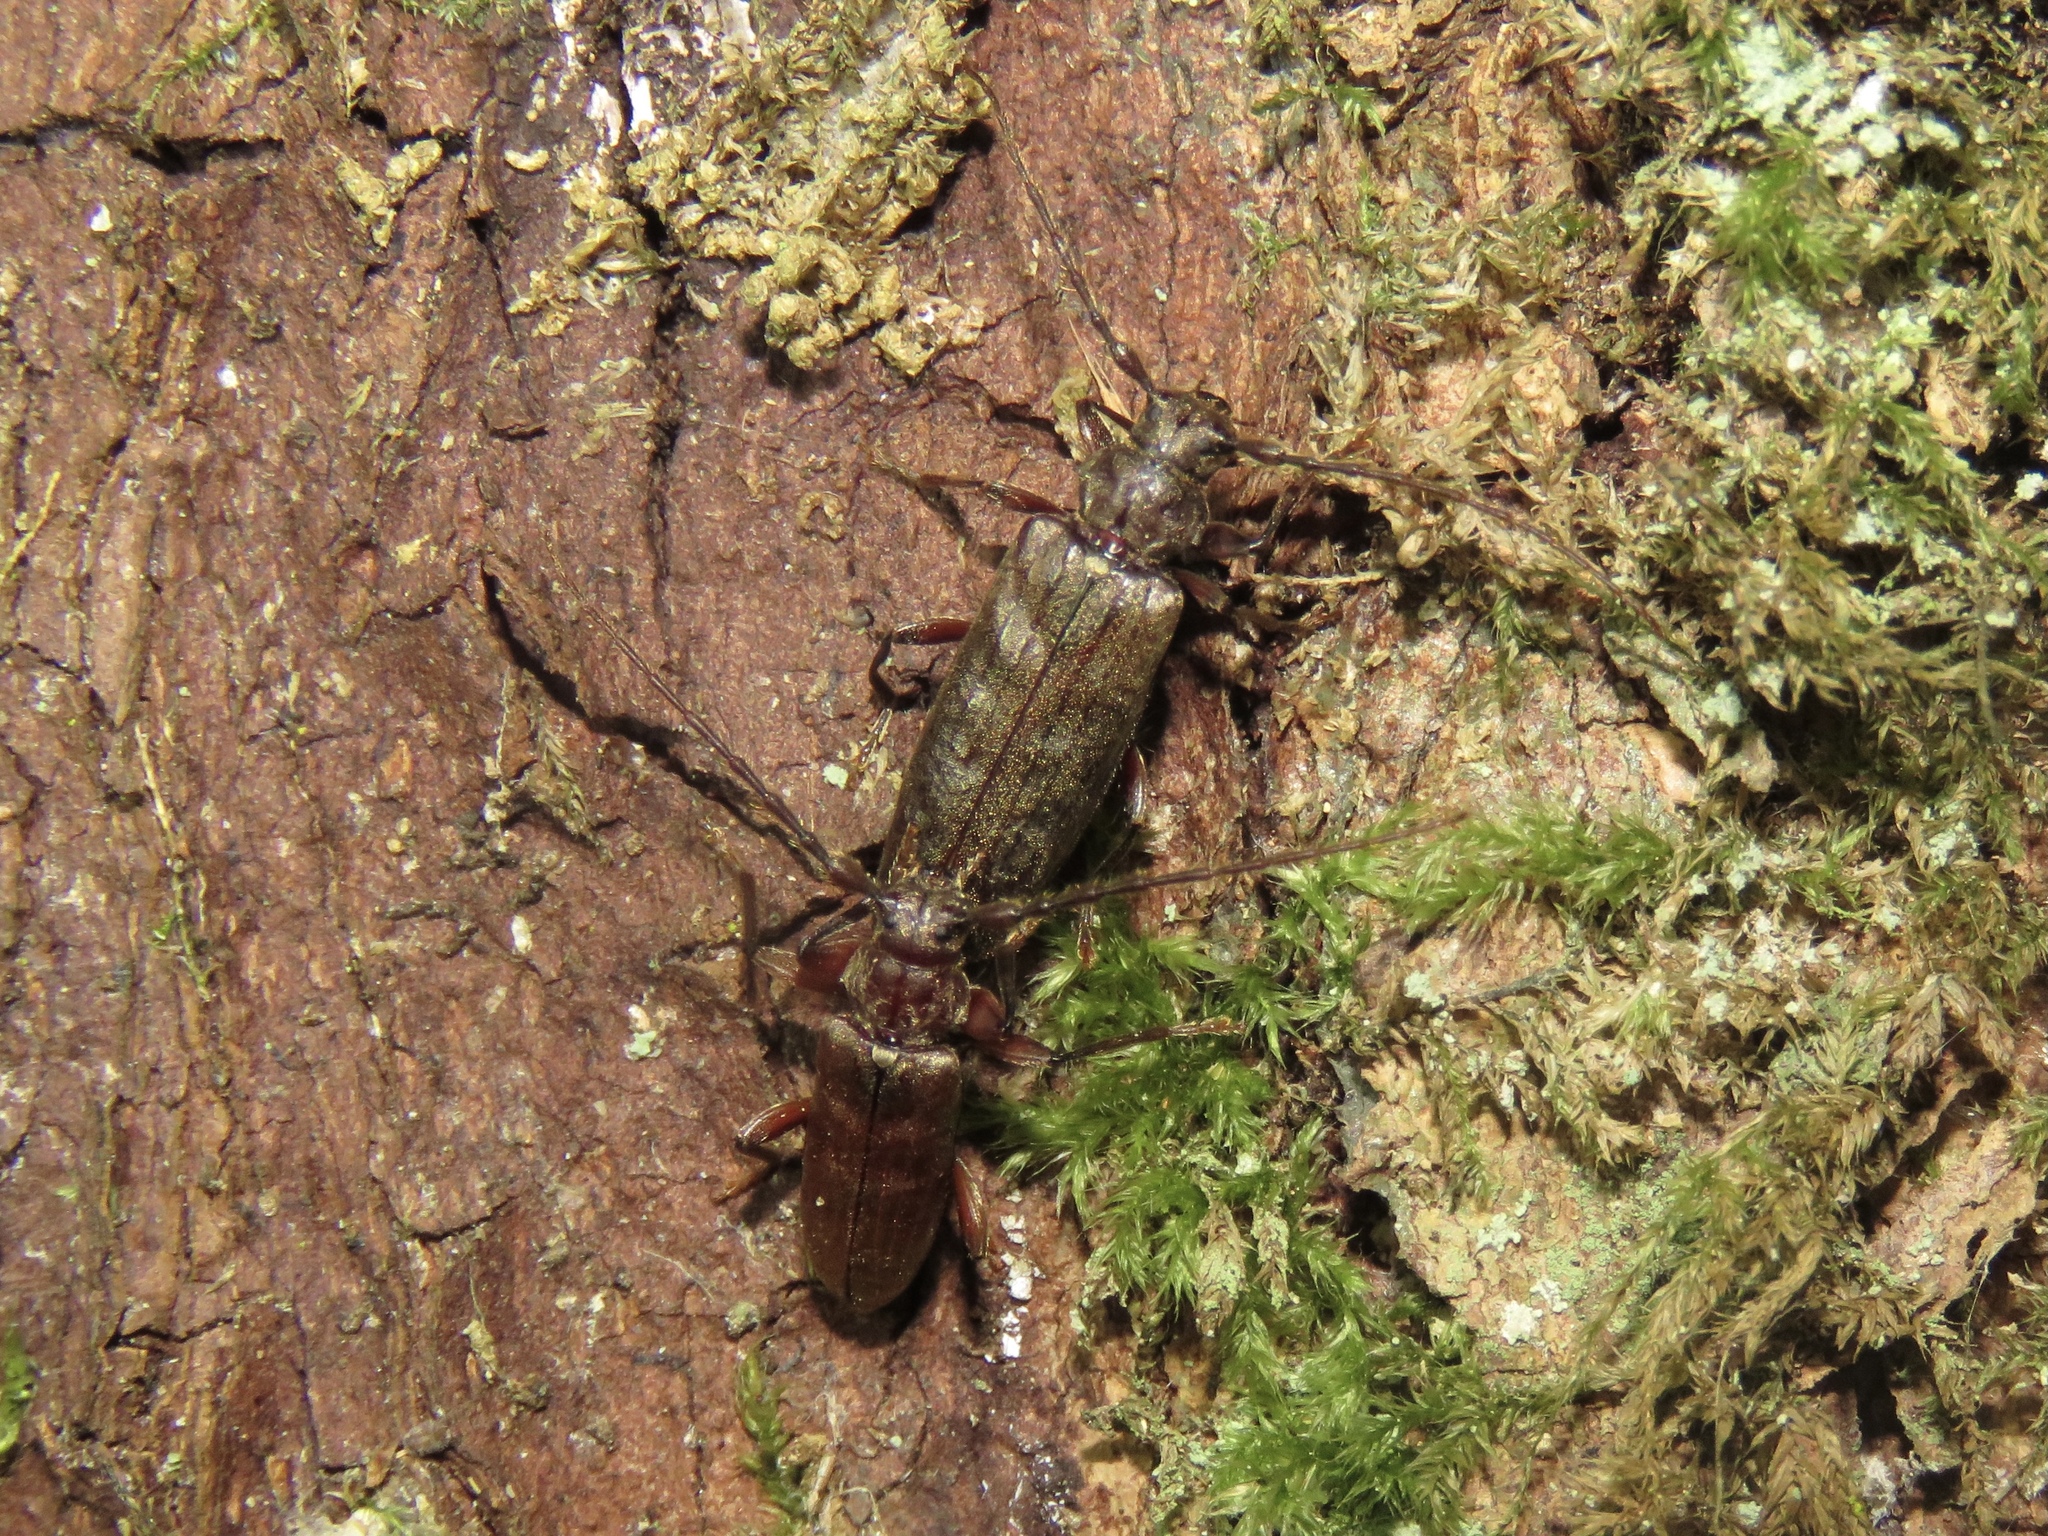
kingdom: Animalia
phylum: Arthropoda
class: Insecta
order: Coleoptera
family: Cerambycidae
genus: Opsimus
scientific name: Opsimus quadrilineatus
